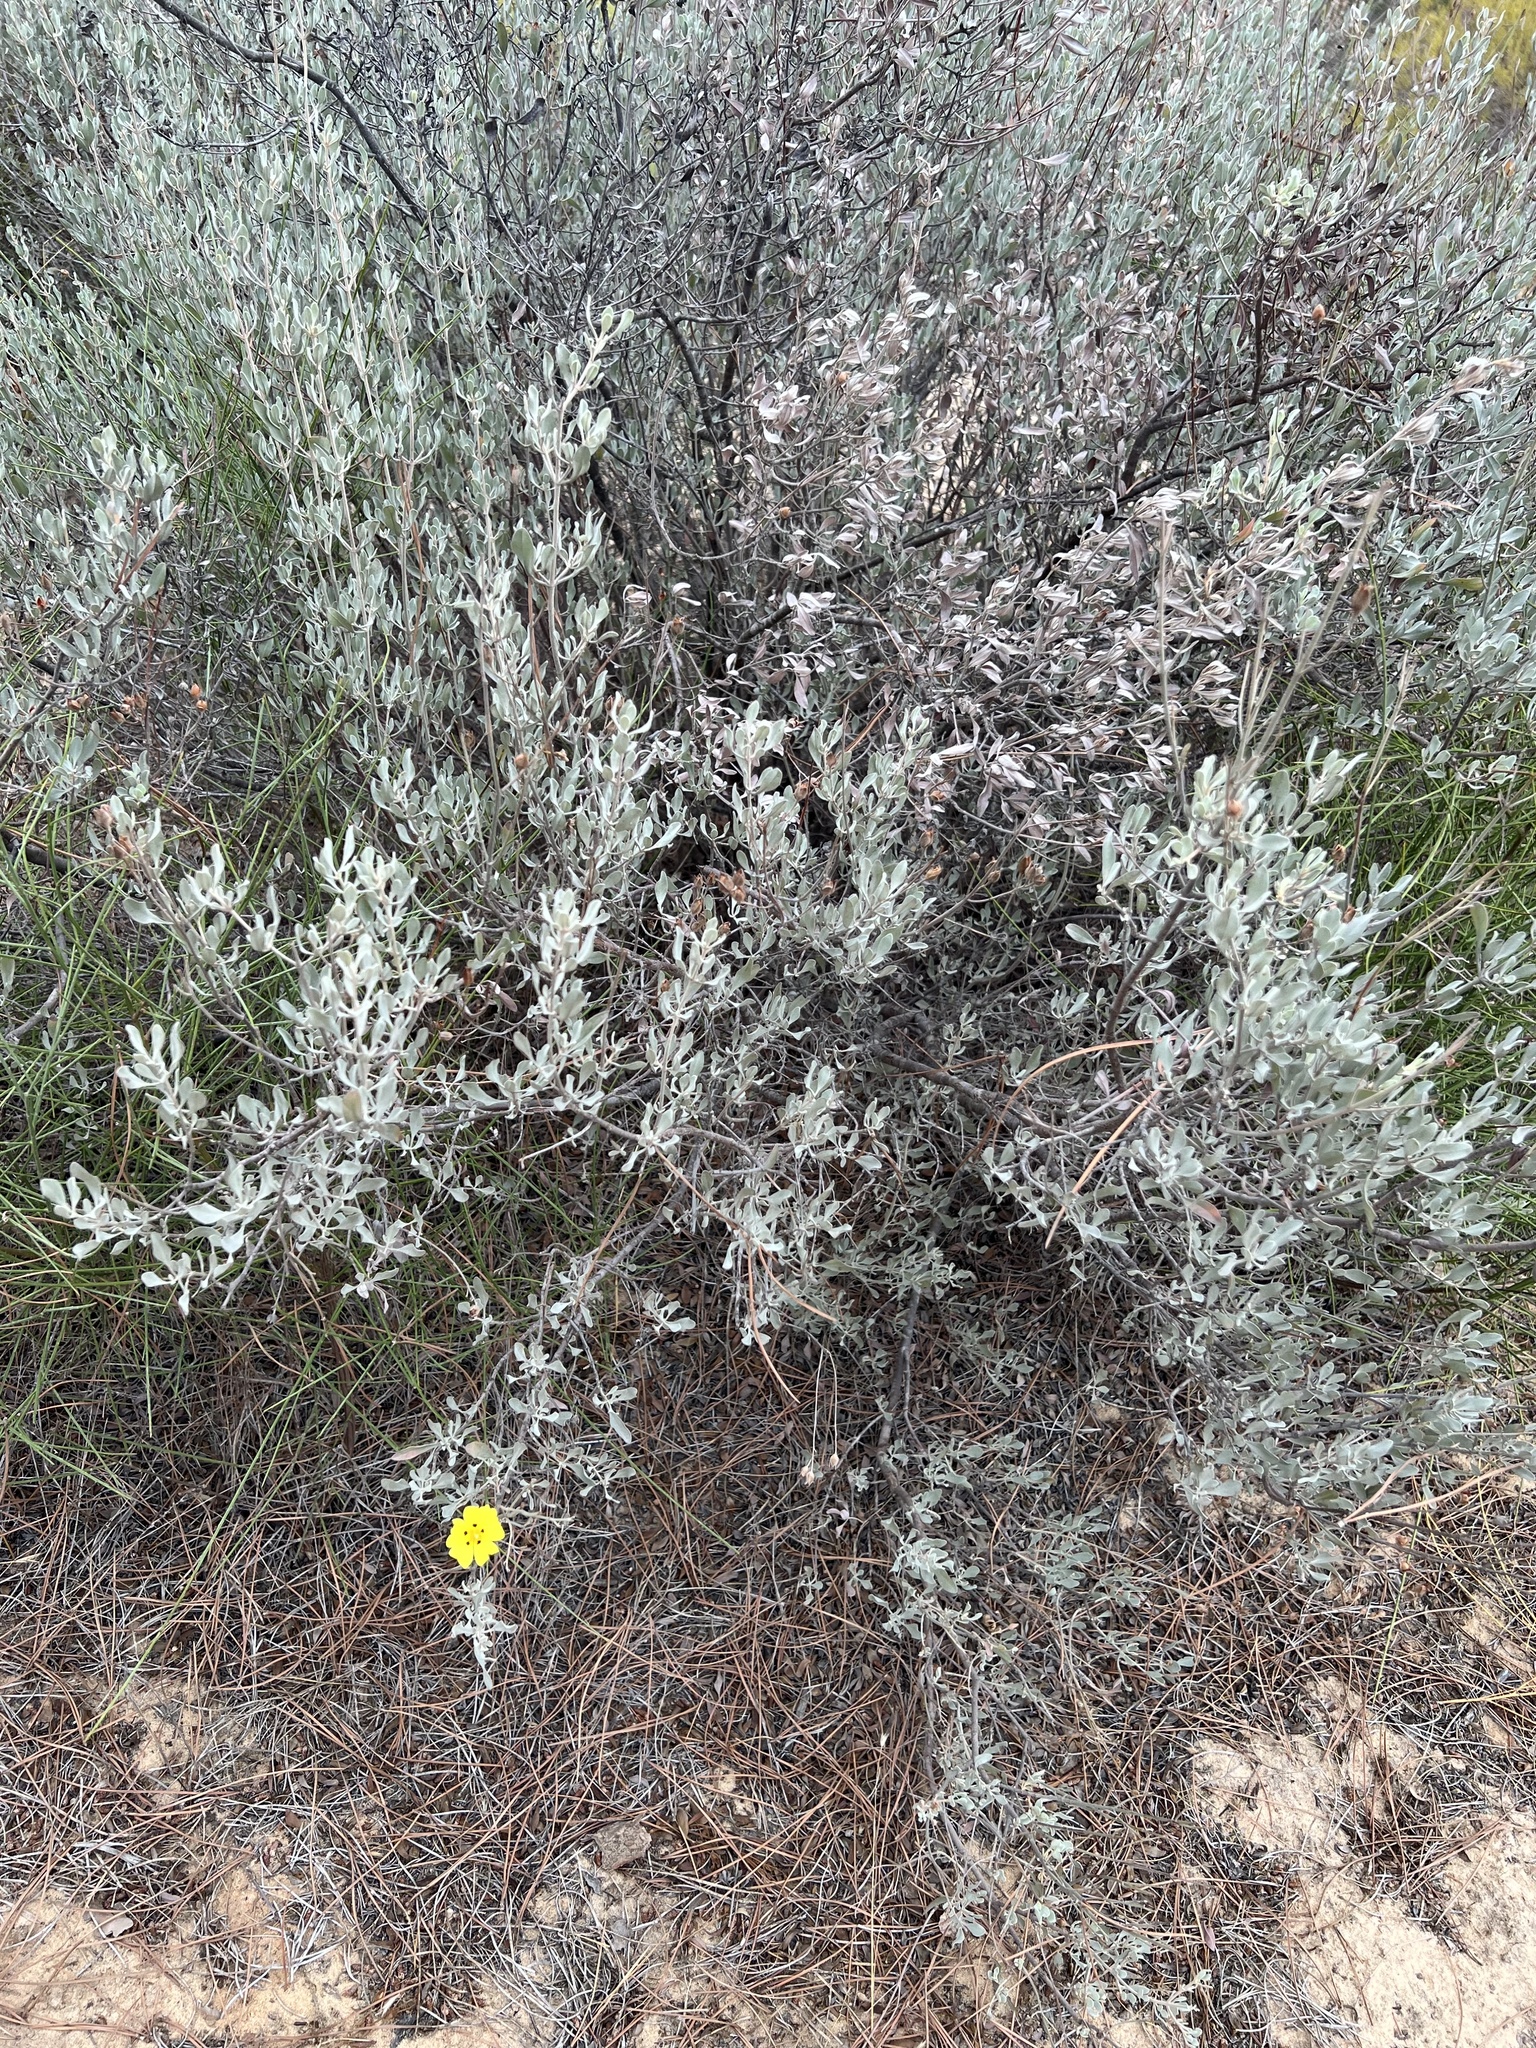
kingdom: Plantae
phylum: Tracheophyta
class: Magnoliopsida
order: Malvales
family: Cistaceae
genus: Halimium
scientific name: Halimium halimifolium
